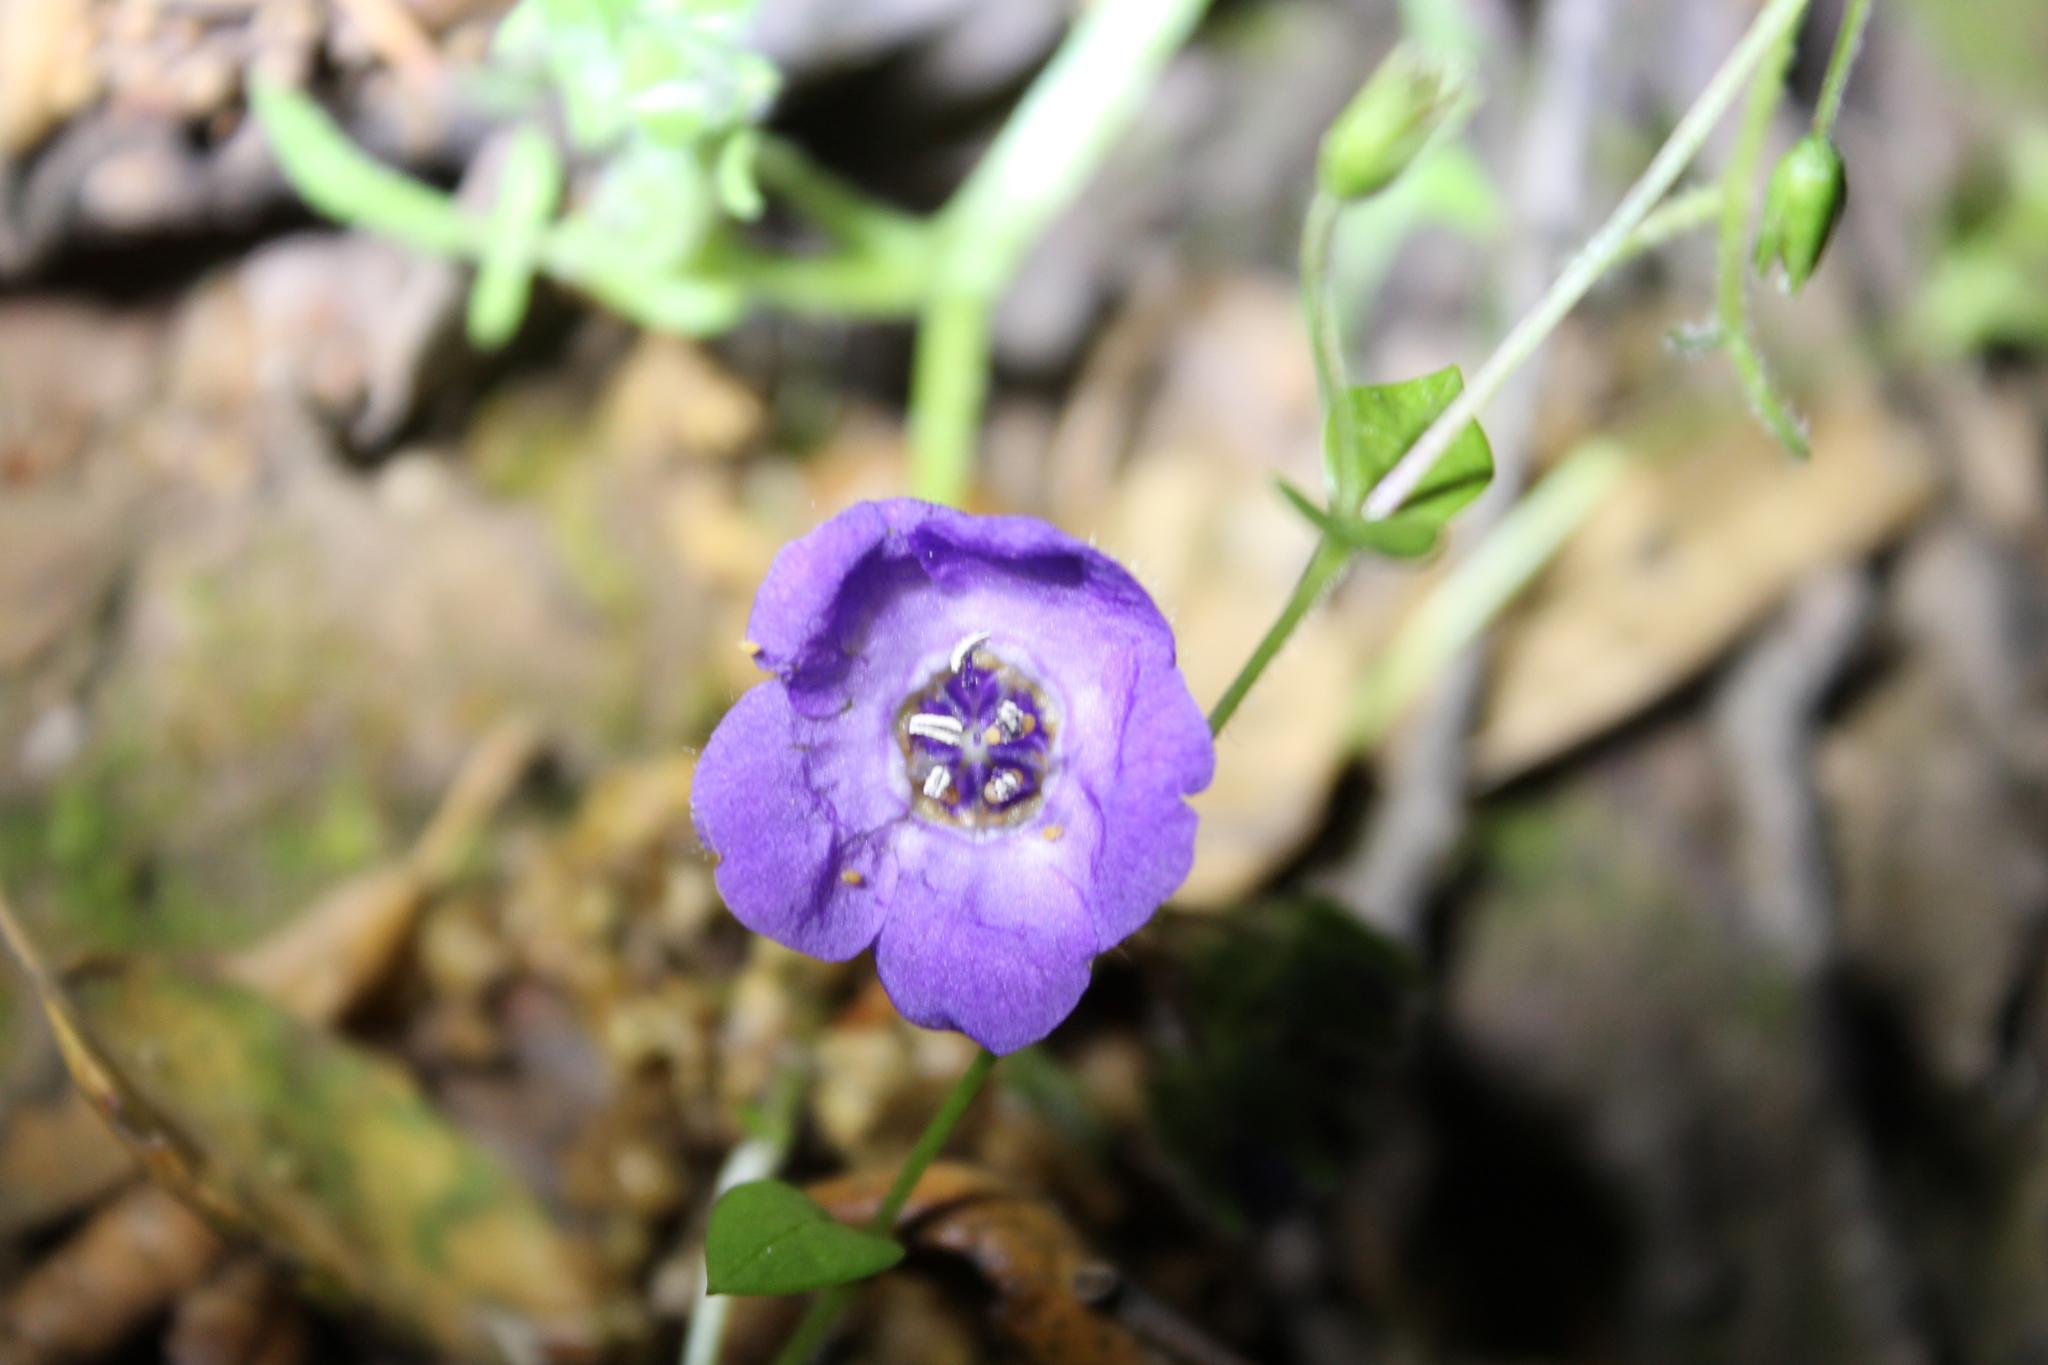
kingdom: Plantae
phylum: Tracheophyta
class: Magnoliopsida
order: Boraginales
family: Hydrophyllaceae
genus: Pholistoma
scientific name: Pholistoma auritum
